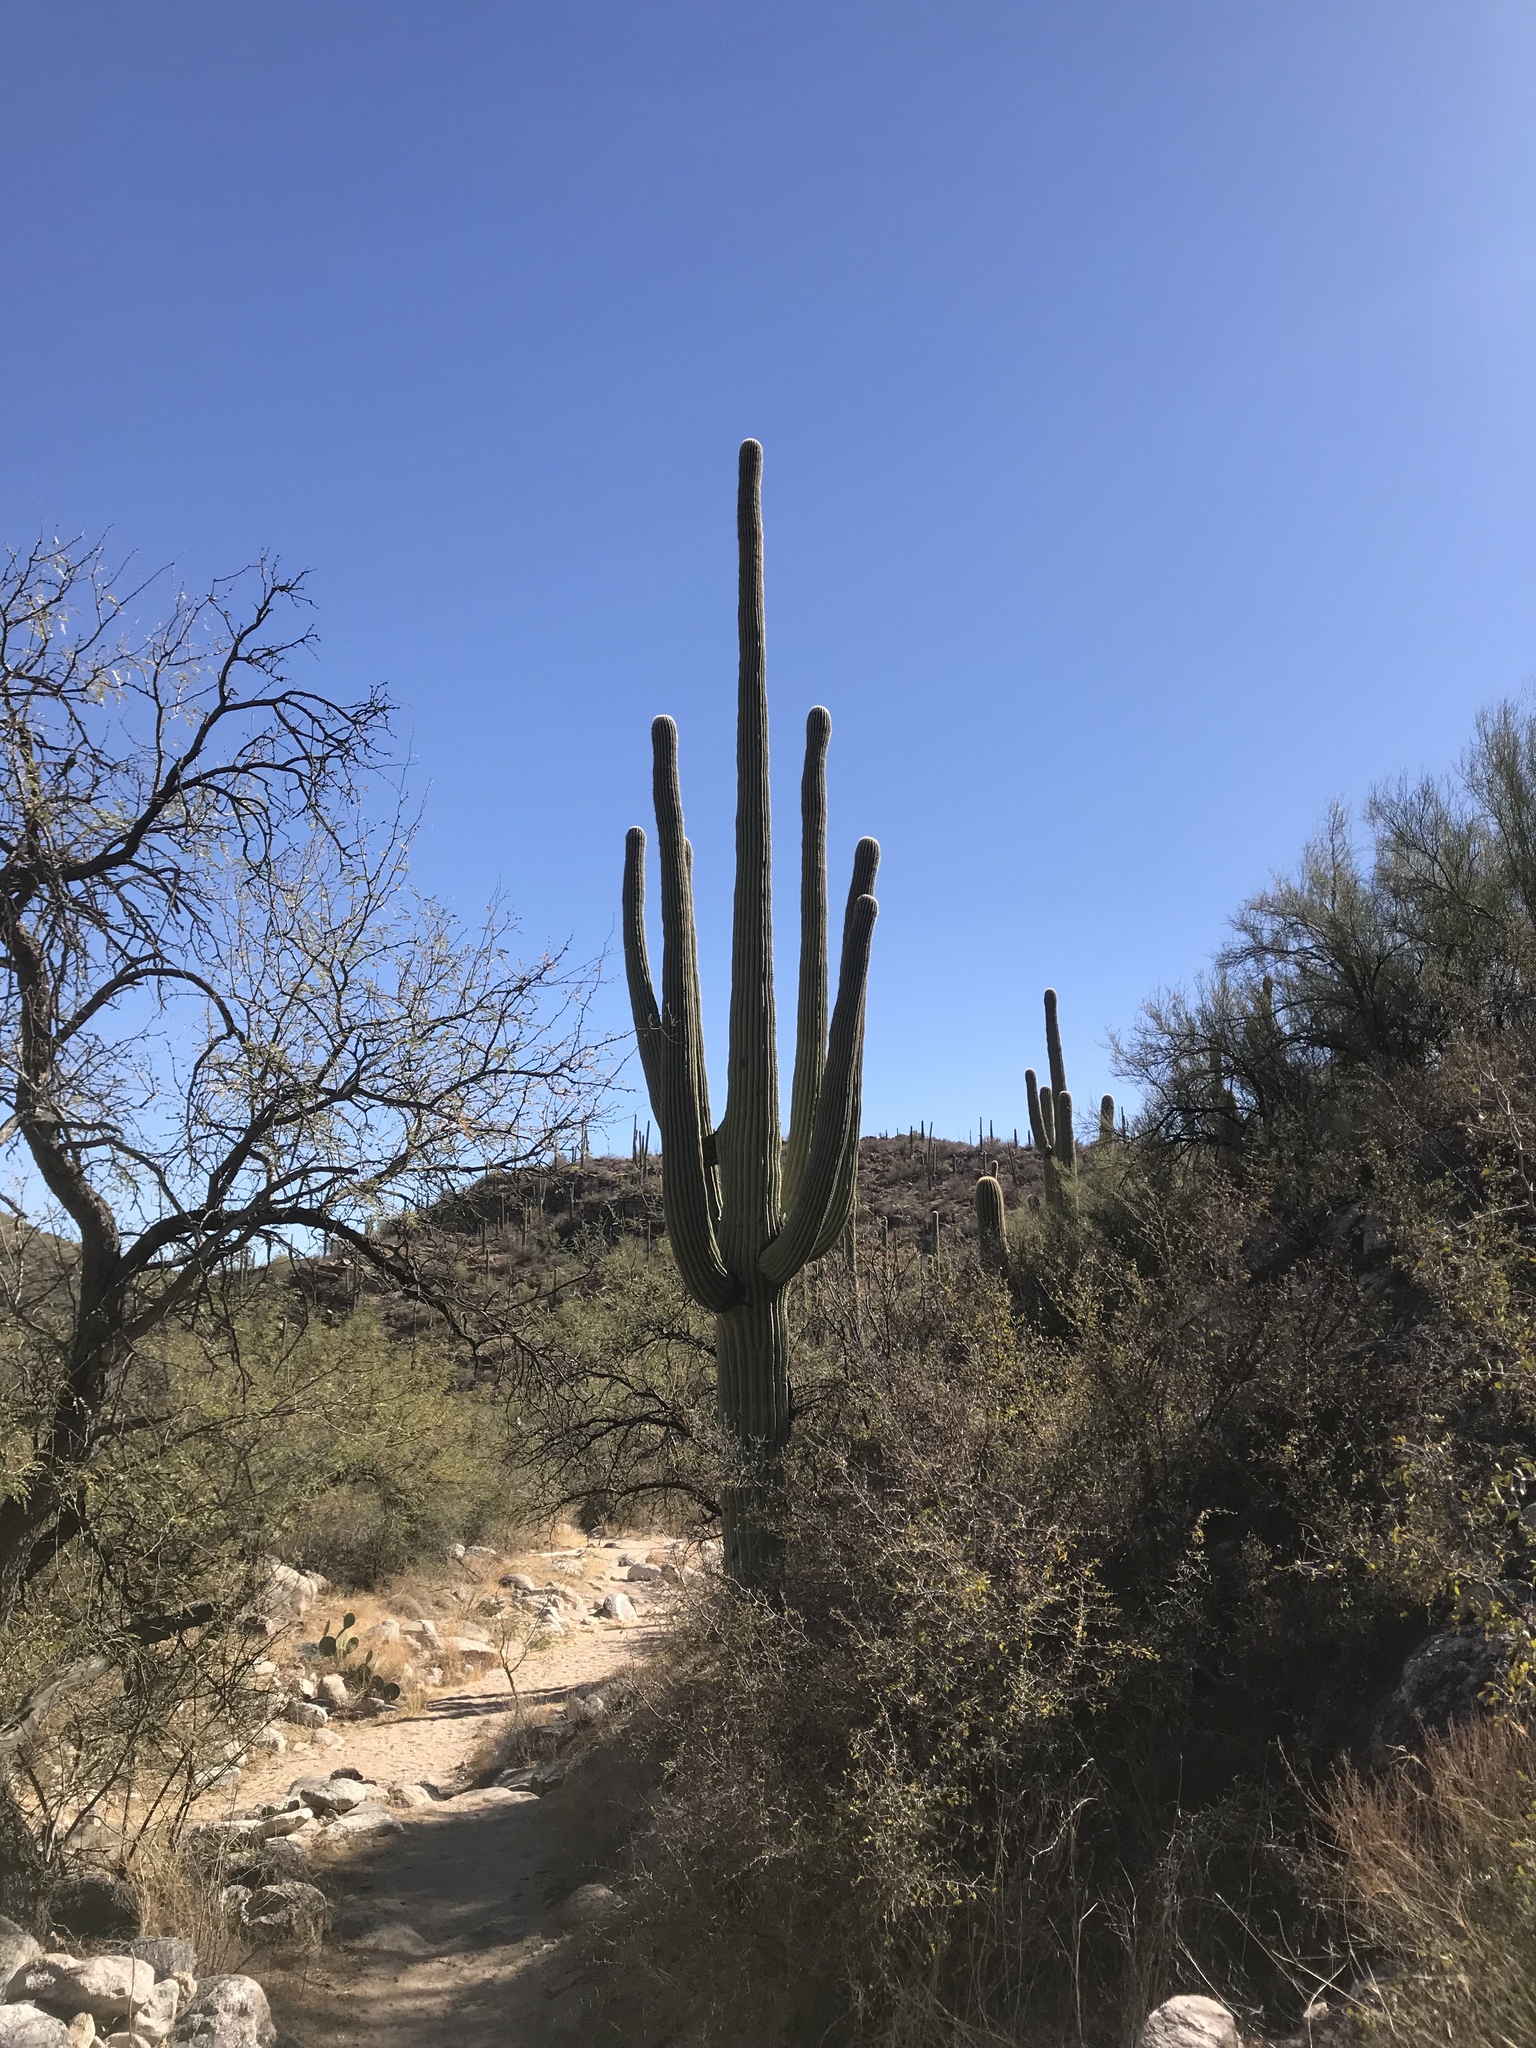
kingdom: Plantae
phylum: Tracheophyta
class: Magnoliopsida
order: Caryophyllales
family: Cactaceae
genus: Carnegiea
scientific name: Carnegiea gigantea
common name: Saguaro
